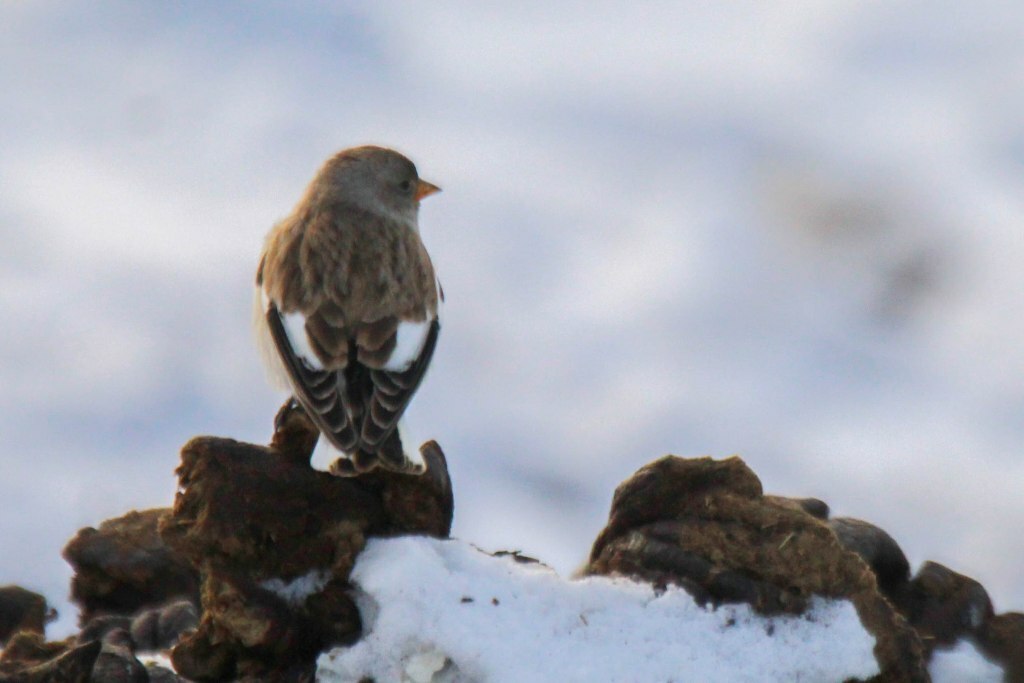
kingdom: Animalia
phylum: Chordata
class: Aves
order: Passeriformes
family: Passeridae
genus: Montifringilla
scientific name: Montifringilla nivalis
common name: White-winged snowfinch
